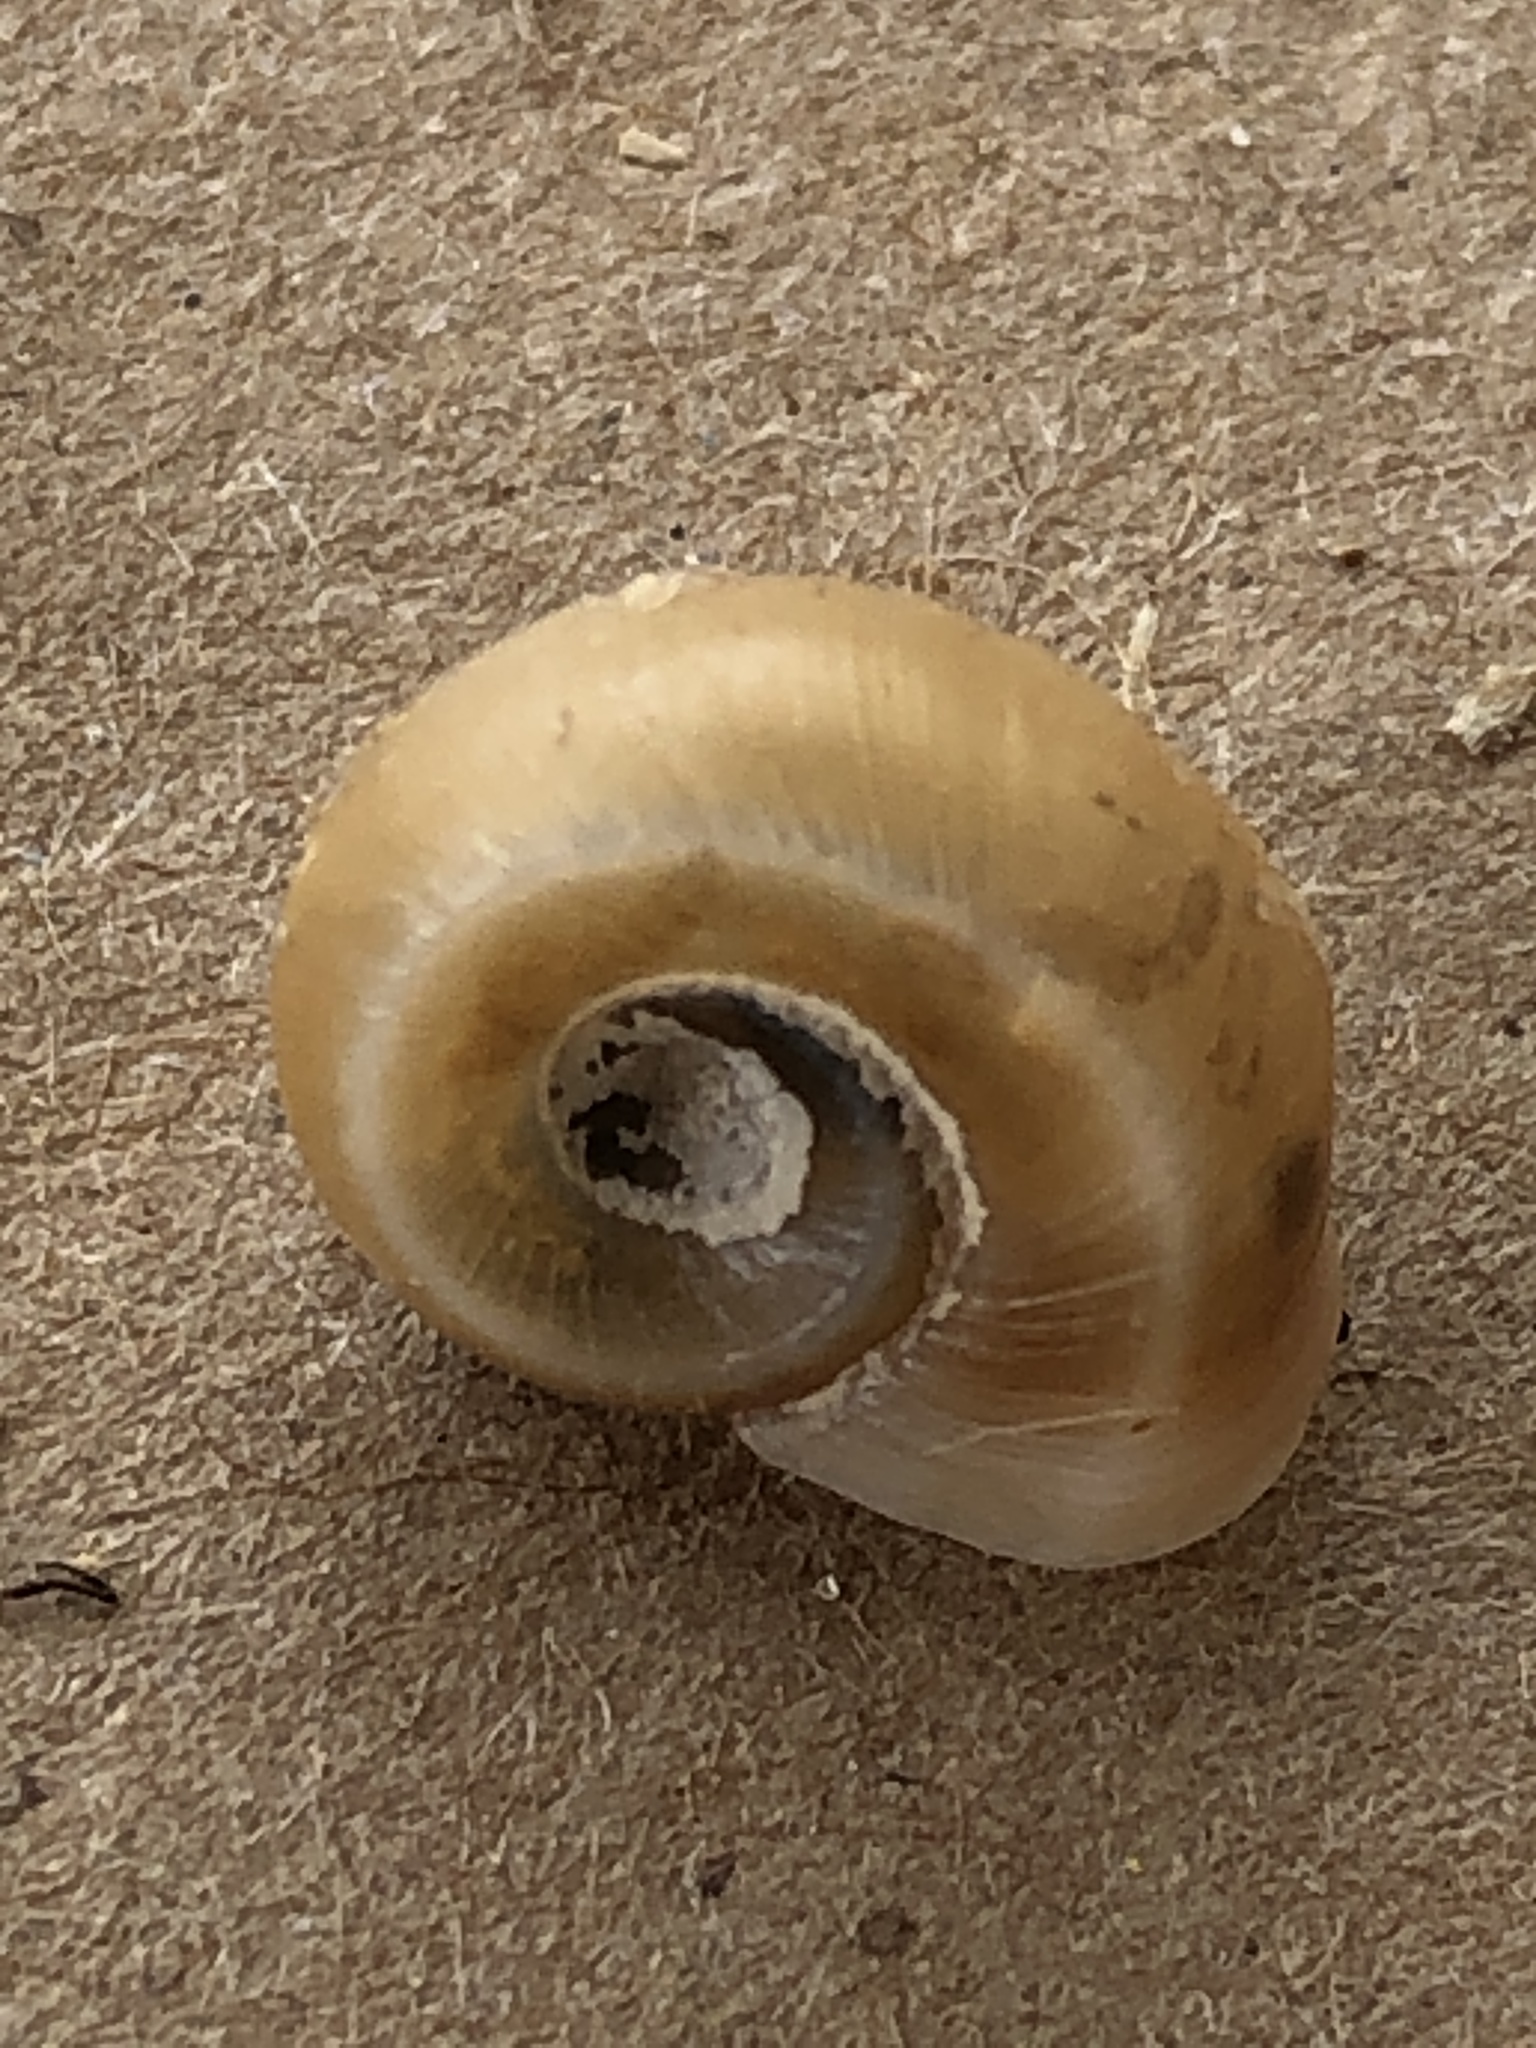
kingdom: Animalia
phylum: Mollusca
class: Gastropoda
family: Planorbidae
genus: Planorbella
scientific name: Planorbella trivolvis
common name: Marsh rams-horn
